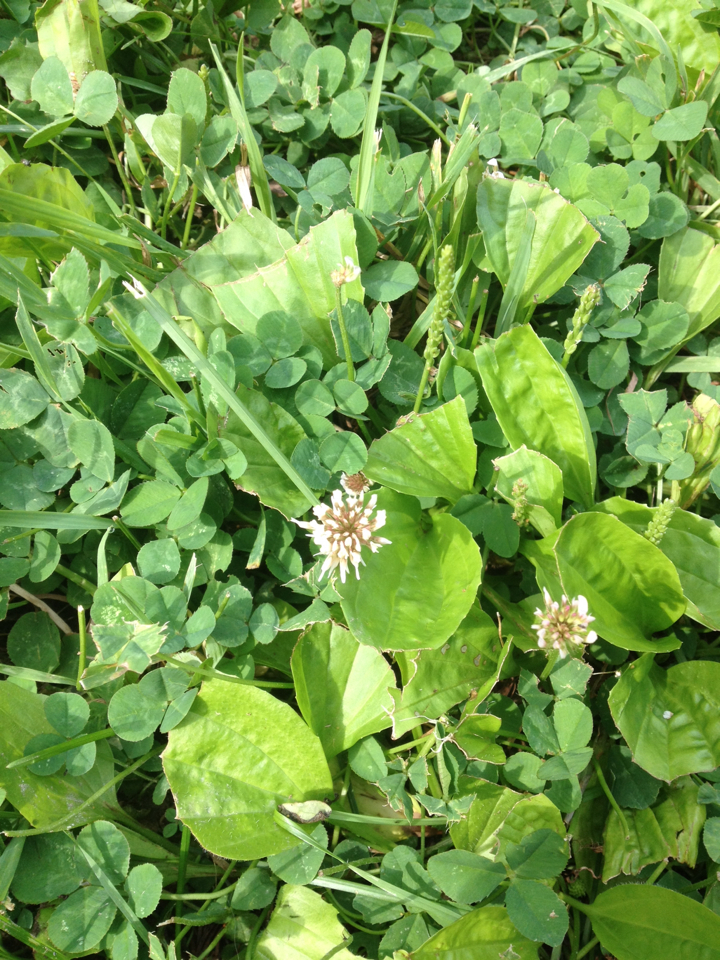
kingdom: Plantae
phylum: Tracheophyta
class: Magnoliopsida
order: Fabales
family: Fabaceae
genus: Trifolium
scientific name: Trifolium repens
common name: White clover
